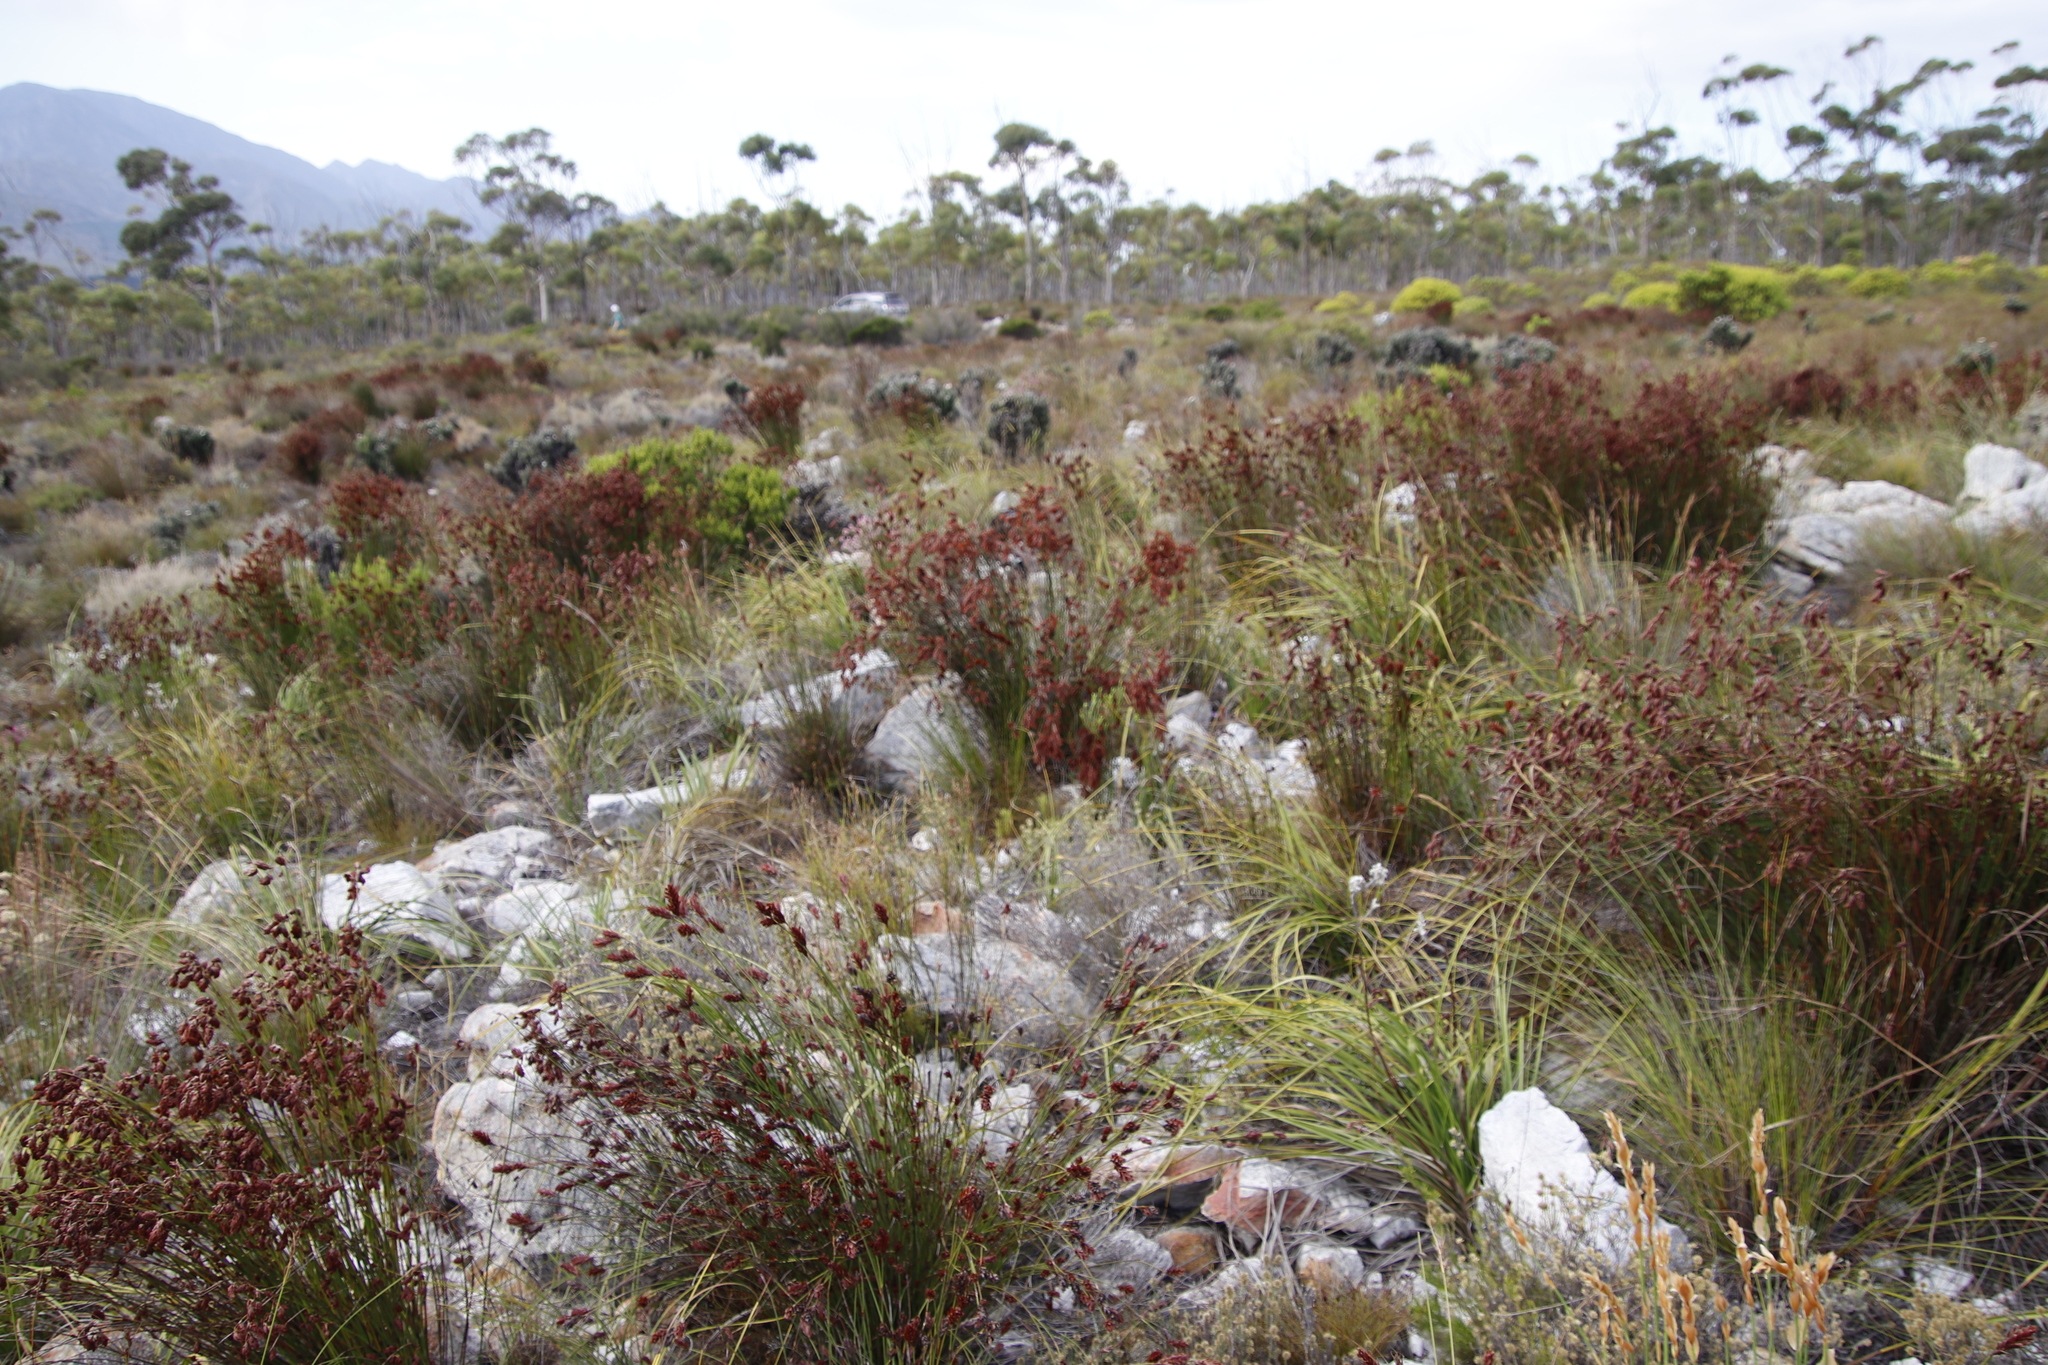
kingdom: Plantae
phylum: Tracheophyta
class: Liliopsida
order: Poales
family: Restionaceae
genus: Staberoha
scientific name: Staberoha vaginata
